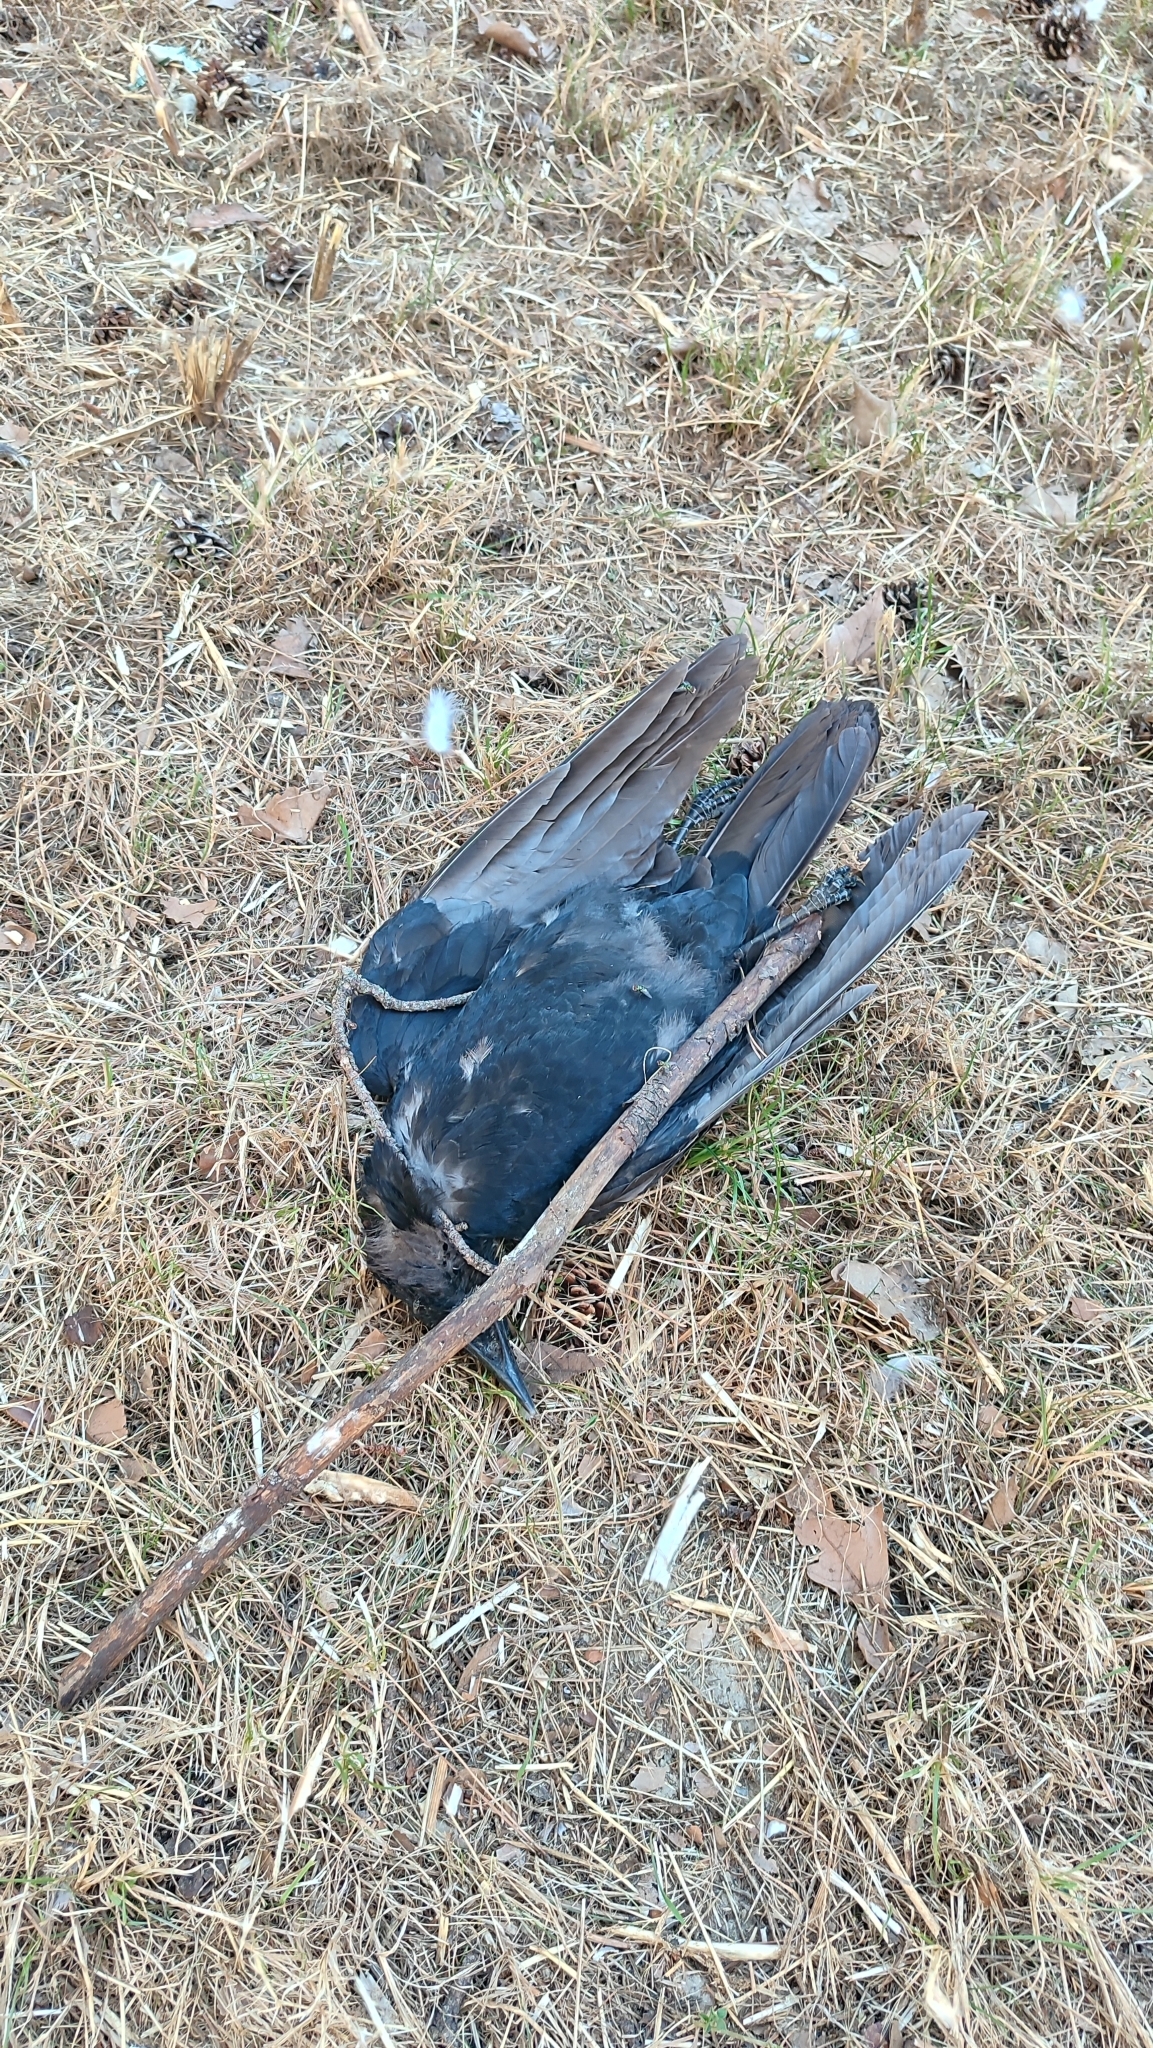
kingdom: Animalia
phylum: Chordata
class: Aves
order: Passeriformes
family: Corvidae
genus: Coloeus
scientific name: Coloeus monedula
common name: Western jackdaw
